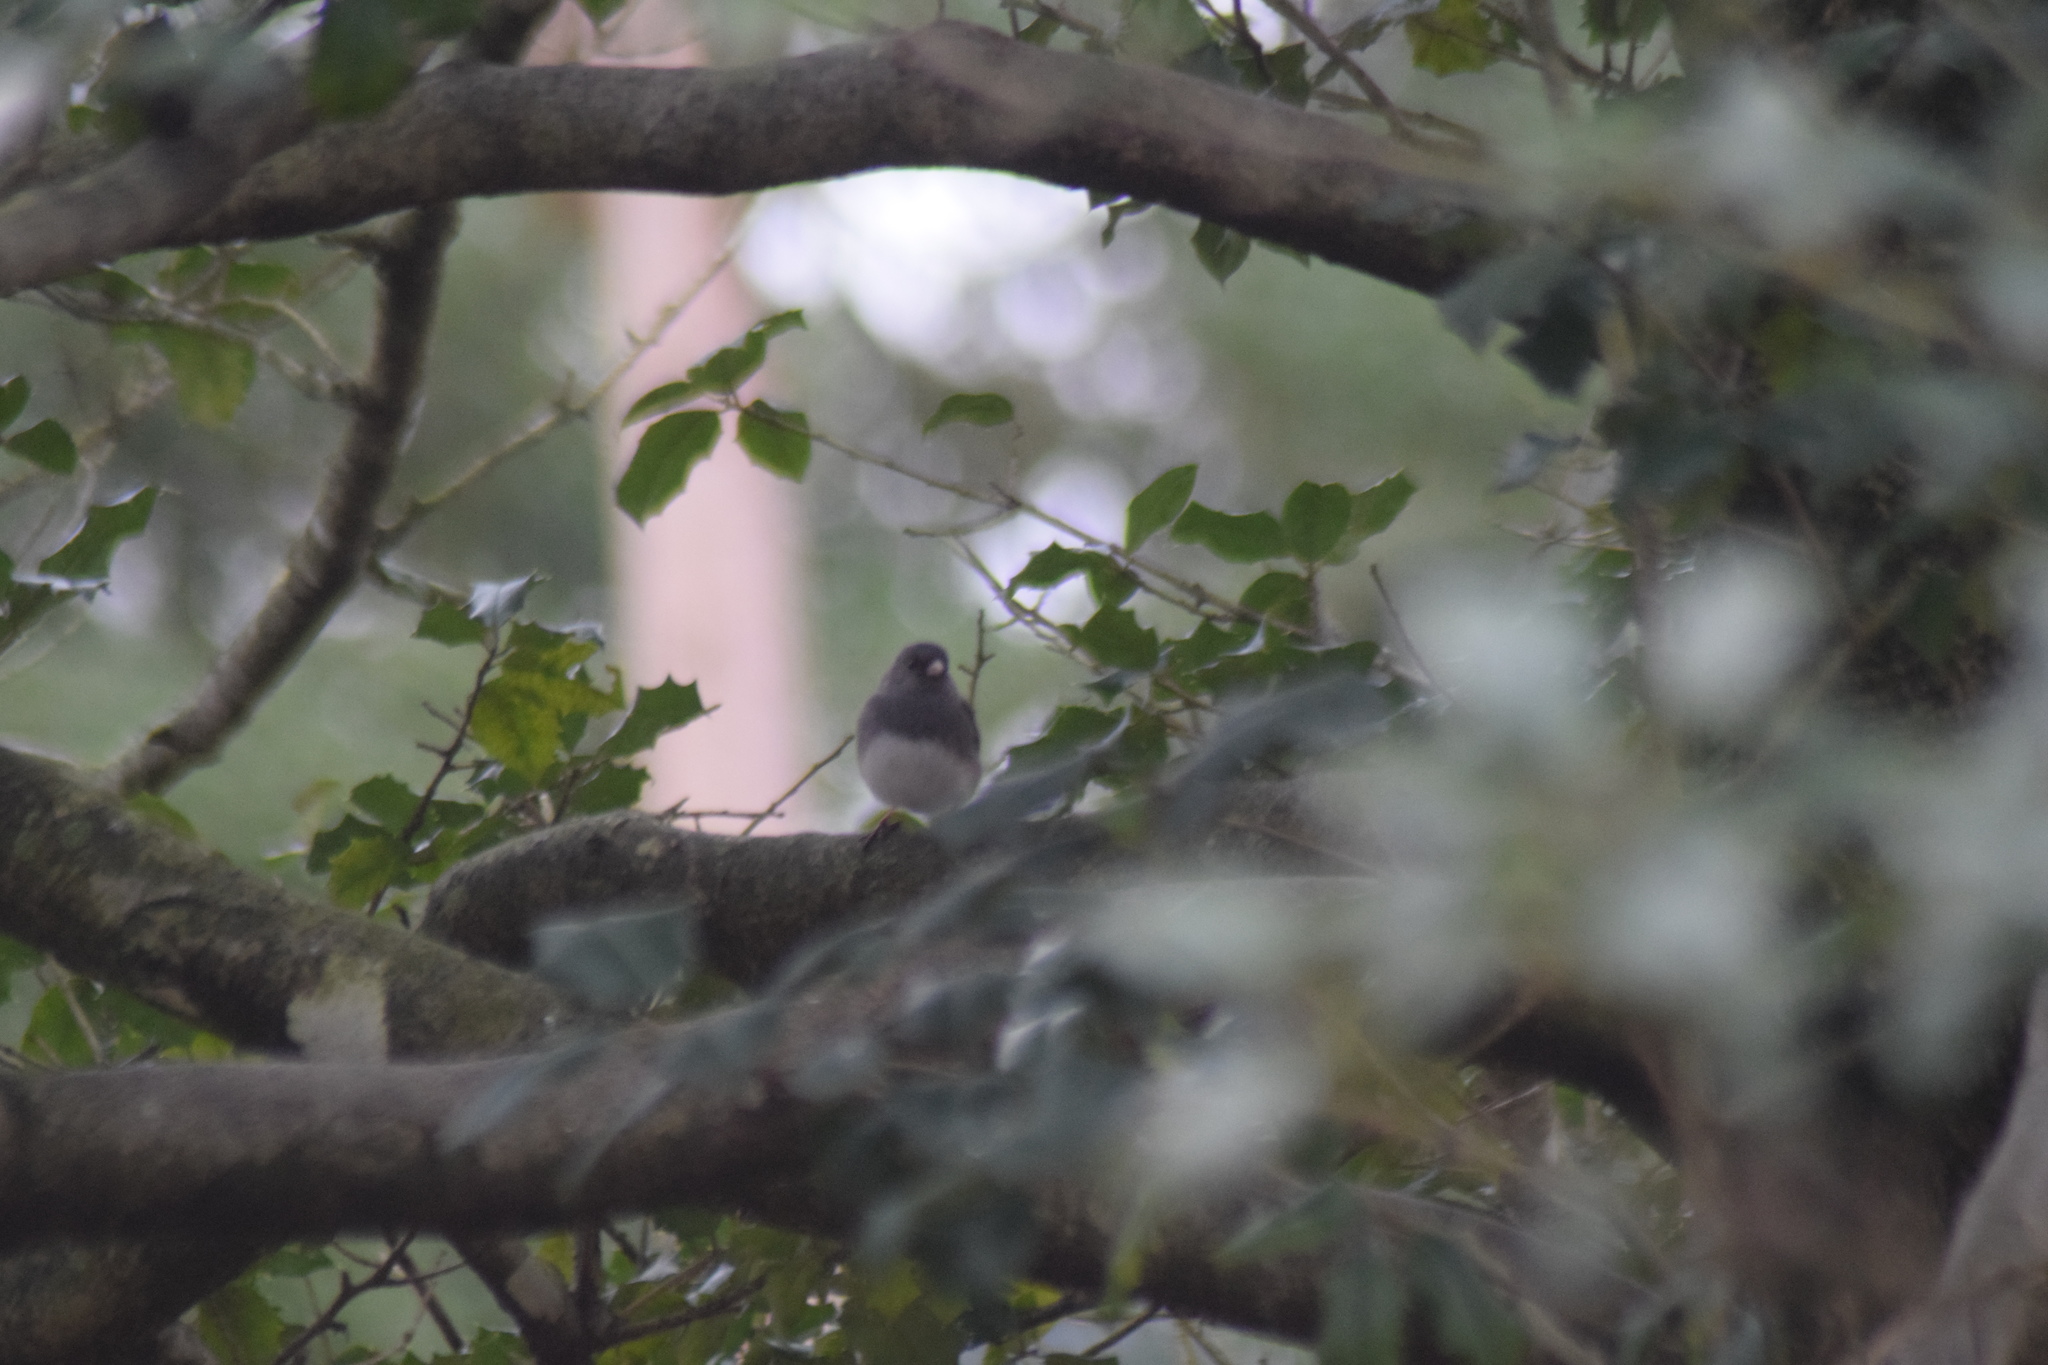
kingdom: Animalia
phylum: Chordata
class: Aves
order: Passeriformes
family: Passerellidae
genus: Junco
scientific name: Junco hyemalis
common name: Dark-eyed junco
